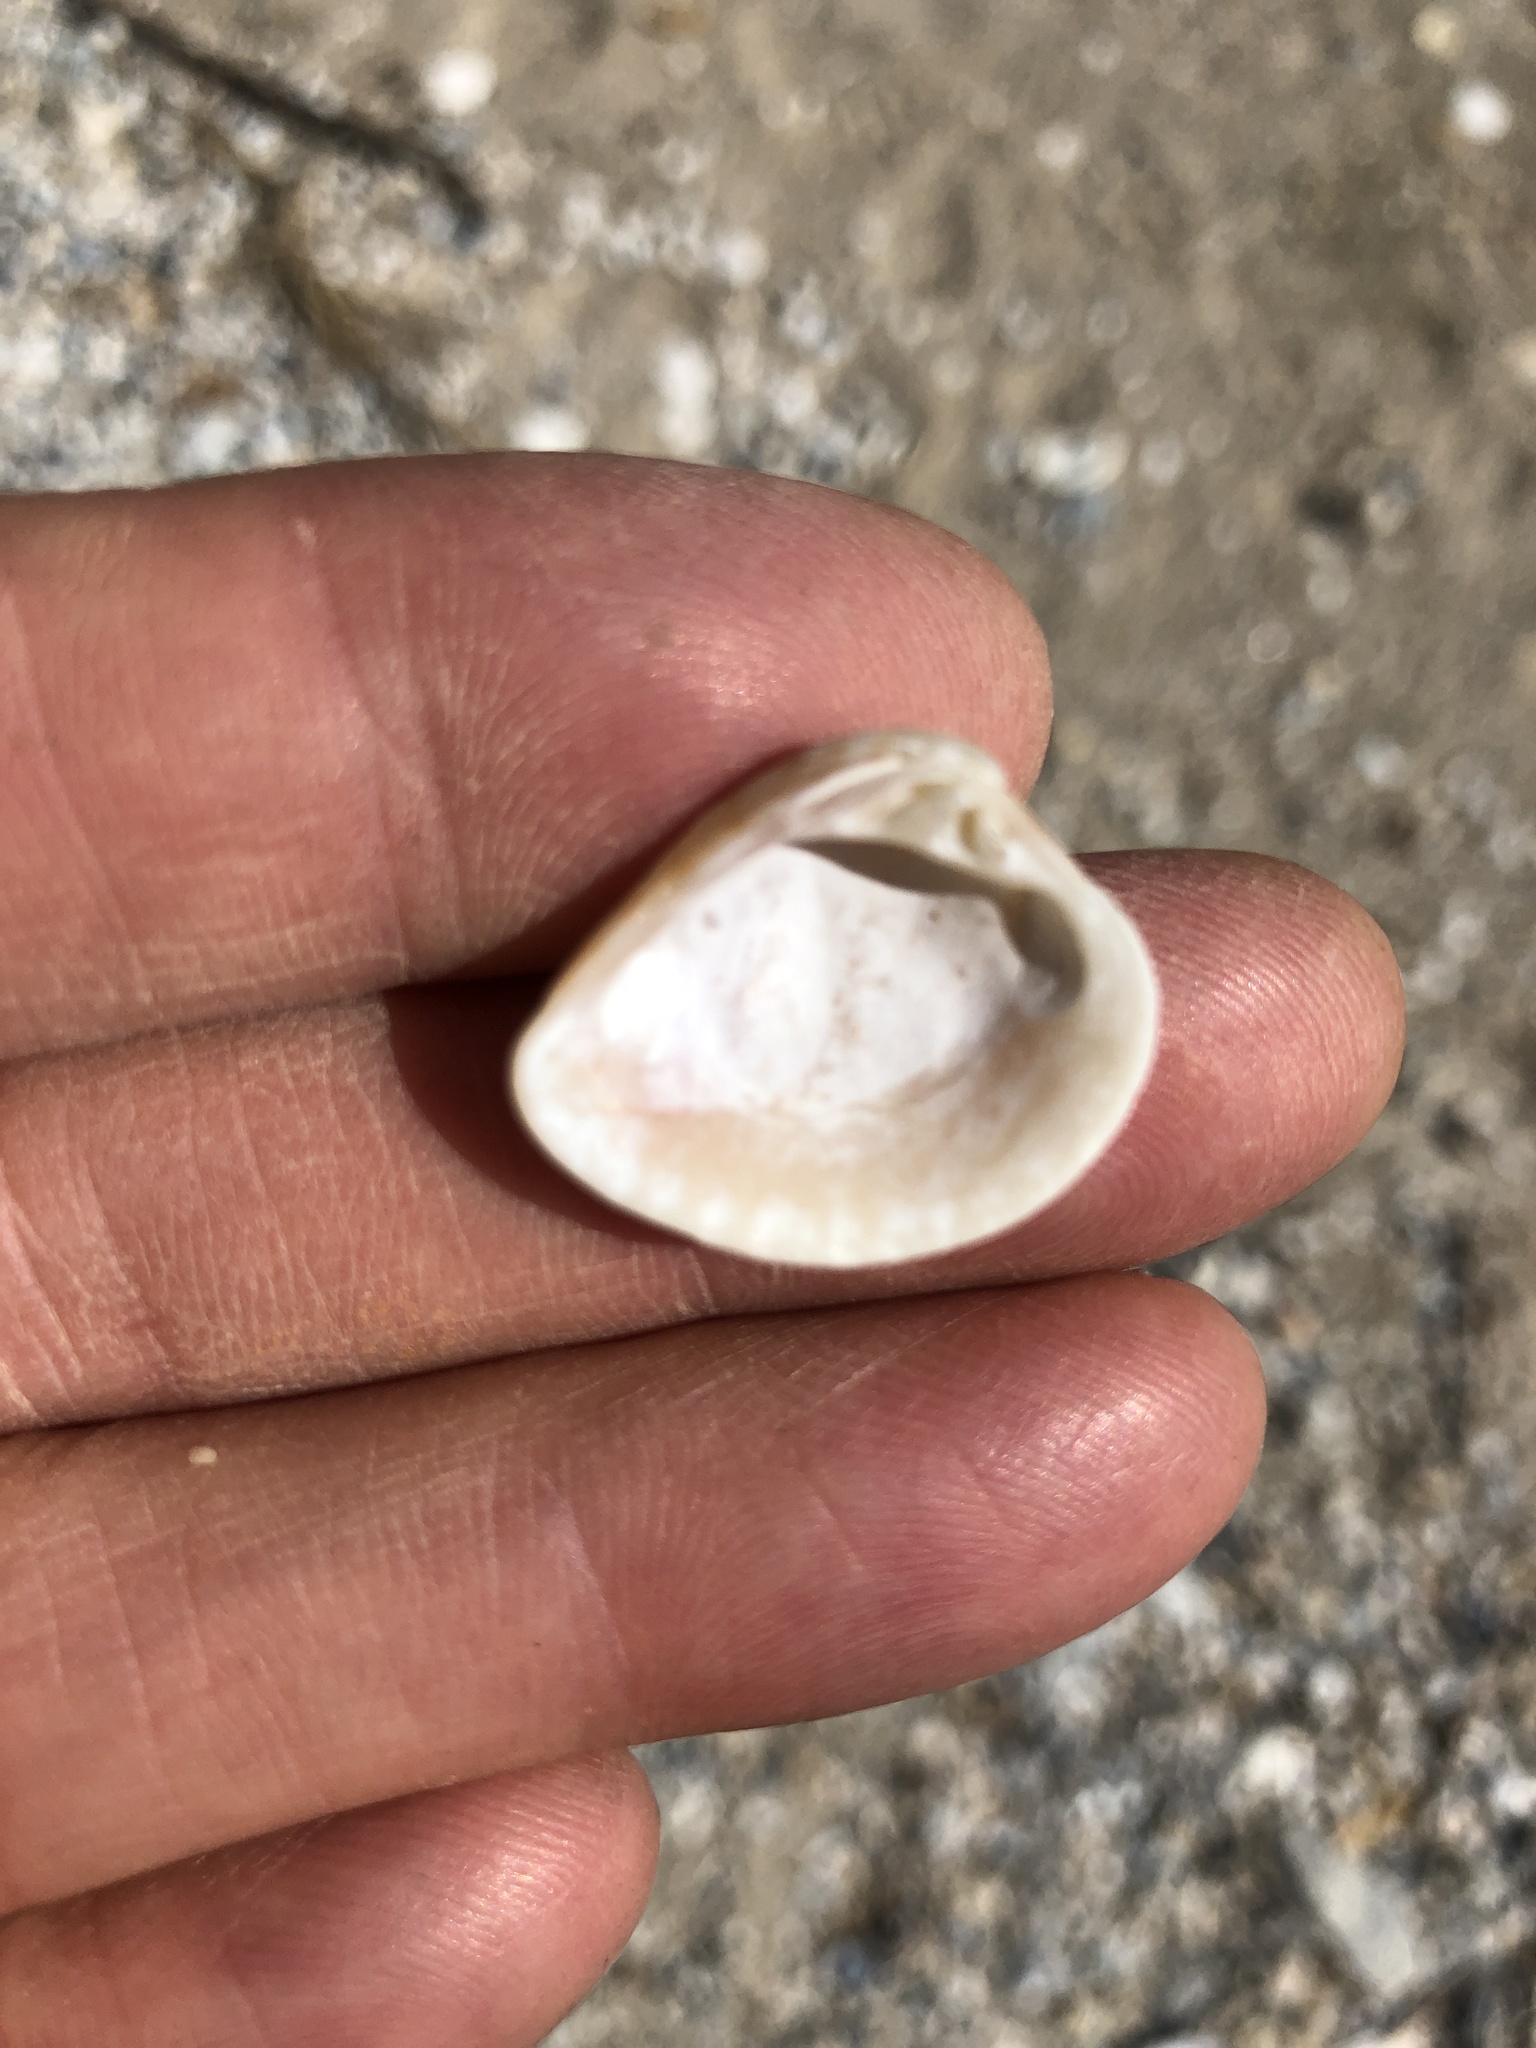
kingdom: Animalia
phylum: Mollusca
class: Bivalvia
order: Venerida
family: Veneridae
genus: Chione
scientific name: Chione elevata
